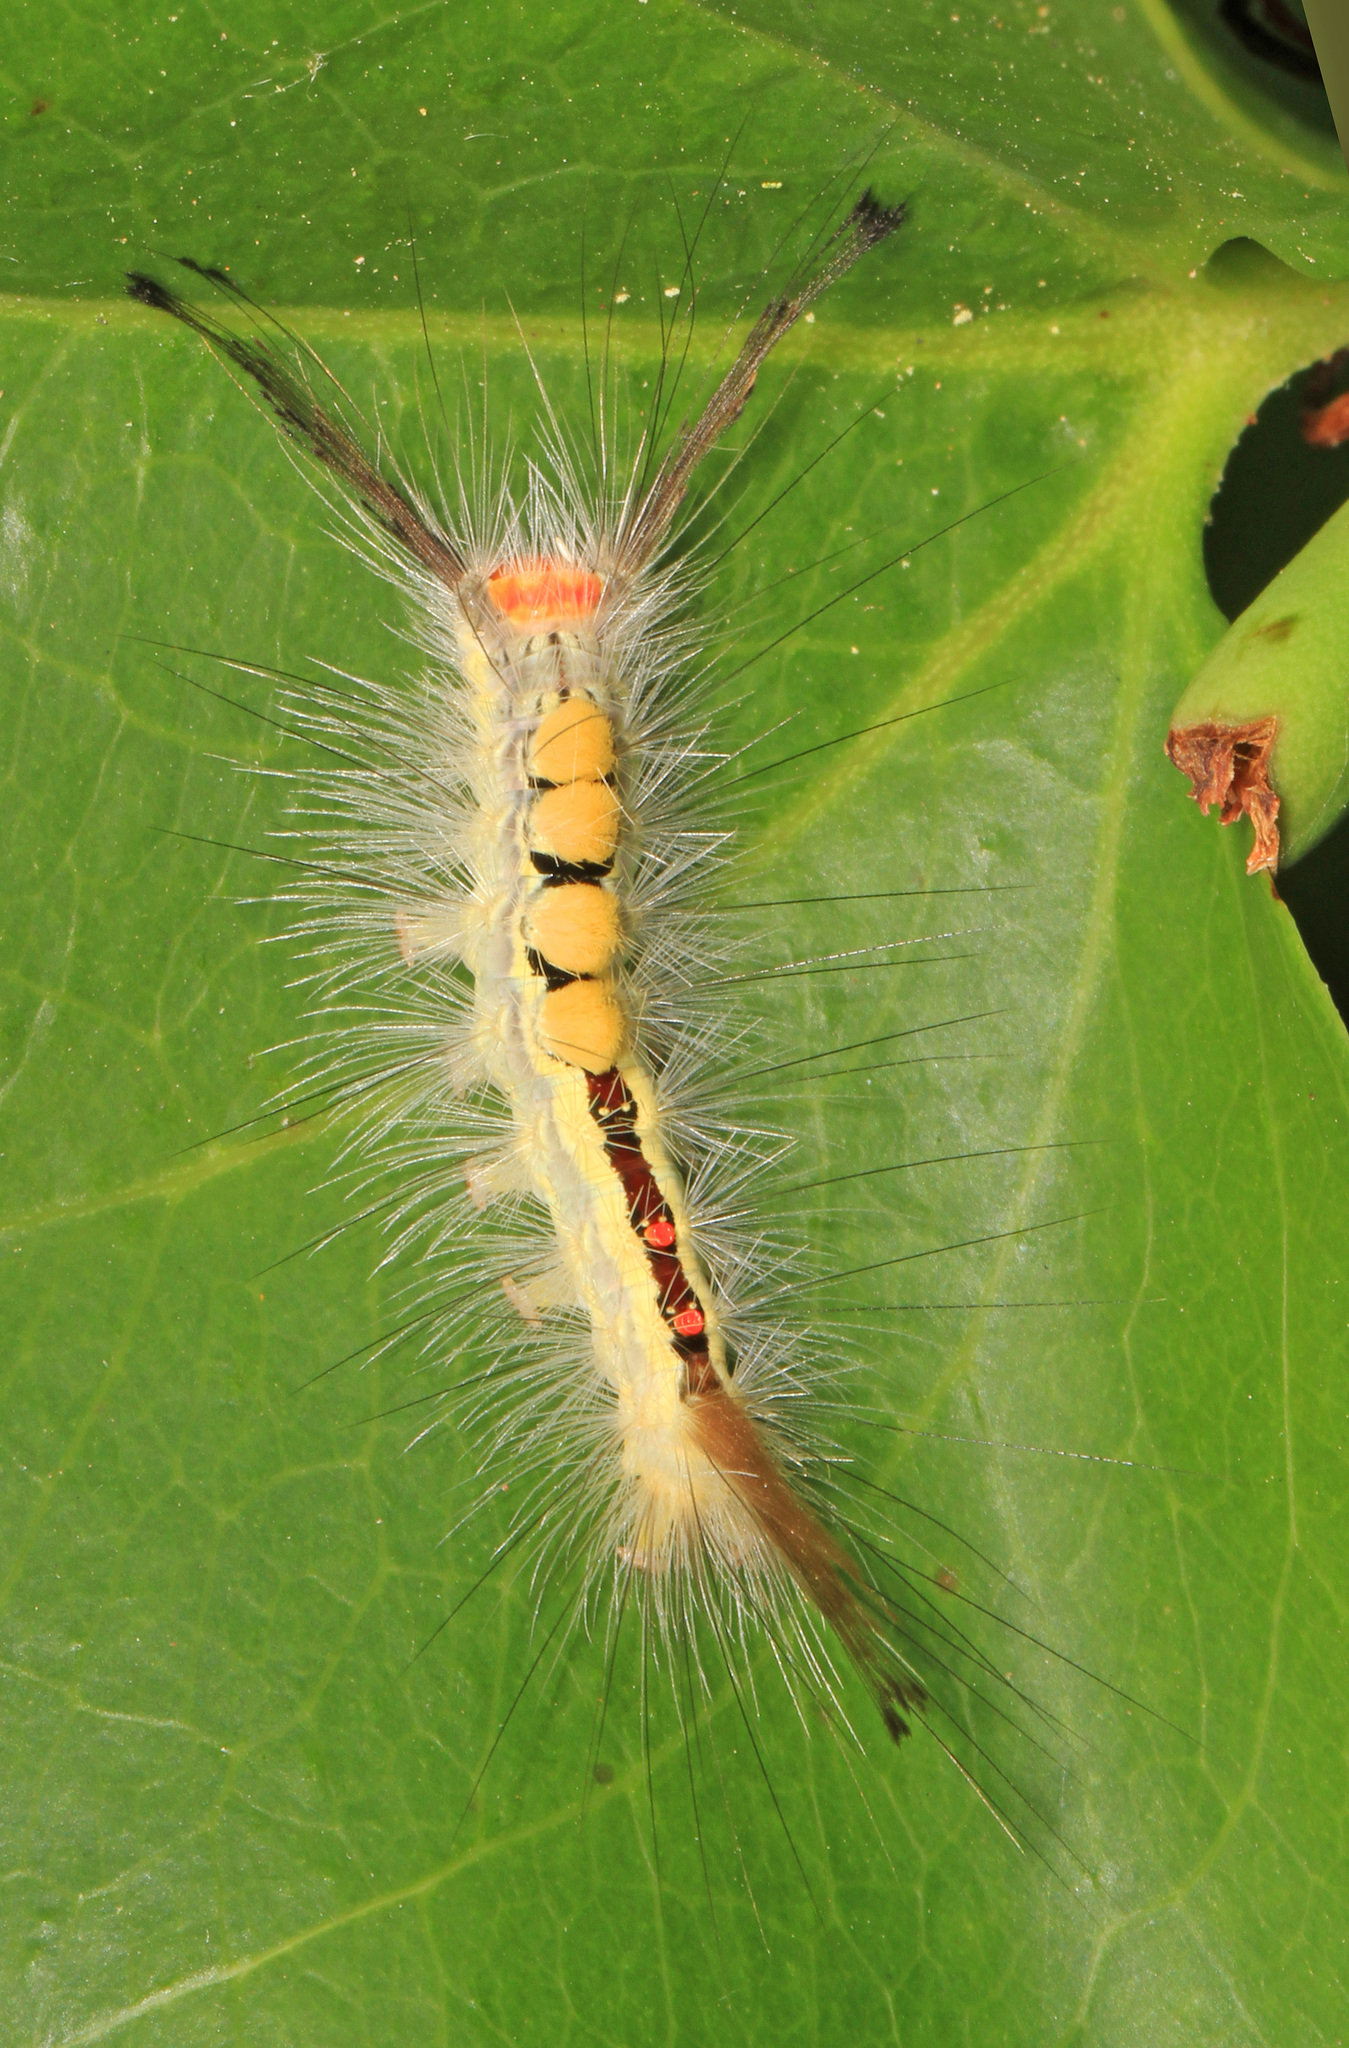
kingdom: Animalia
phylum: Arthropoda
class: Insecta
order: Lepidoptera
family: Erebidae
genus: Orgyia
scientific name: Orgyia leucostigma
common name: White-marked tussock moth
